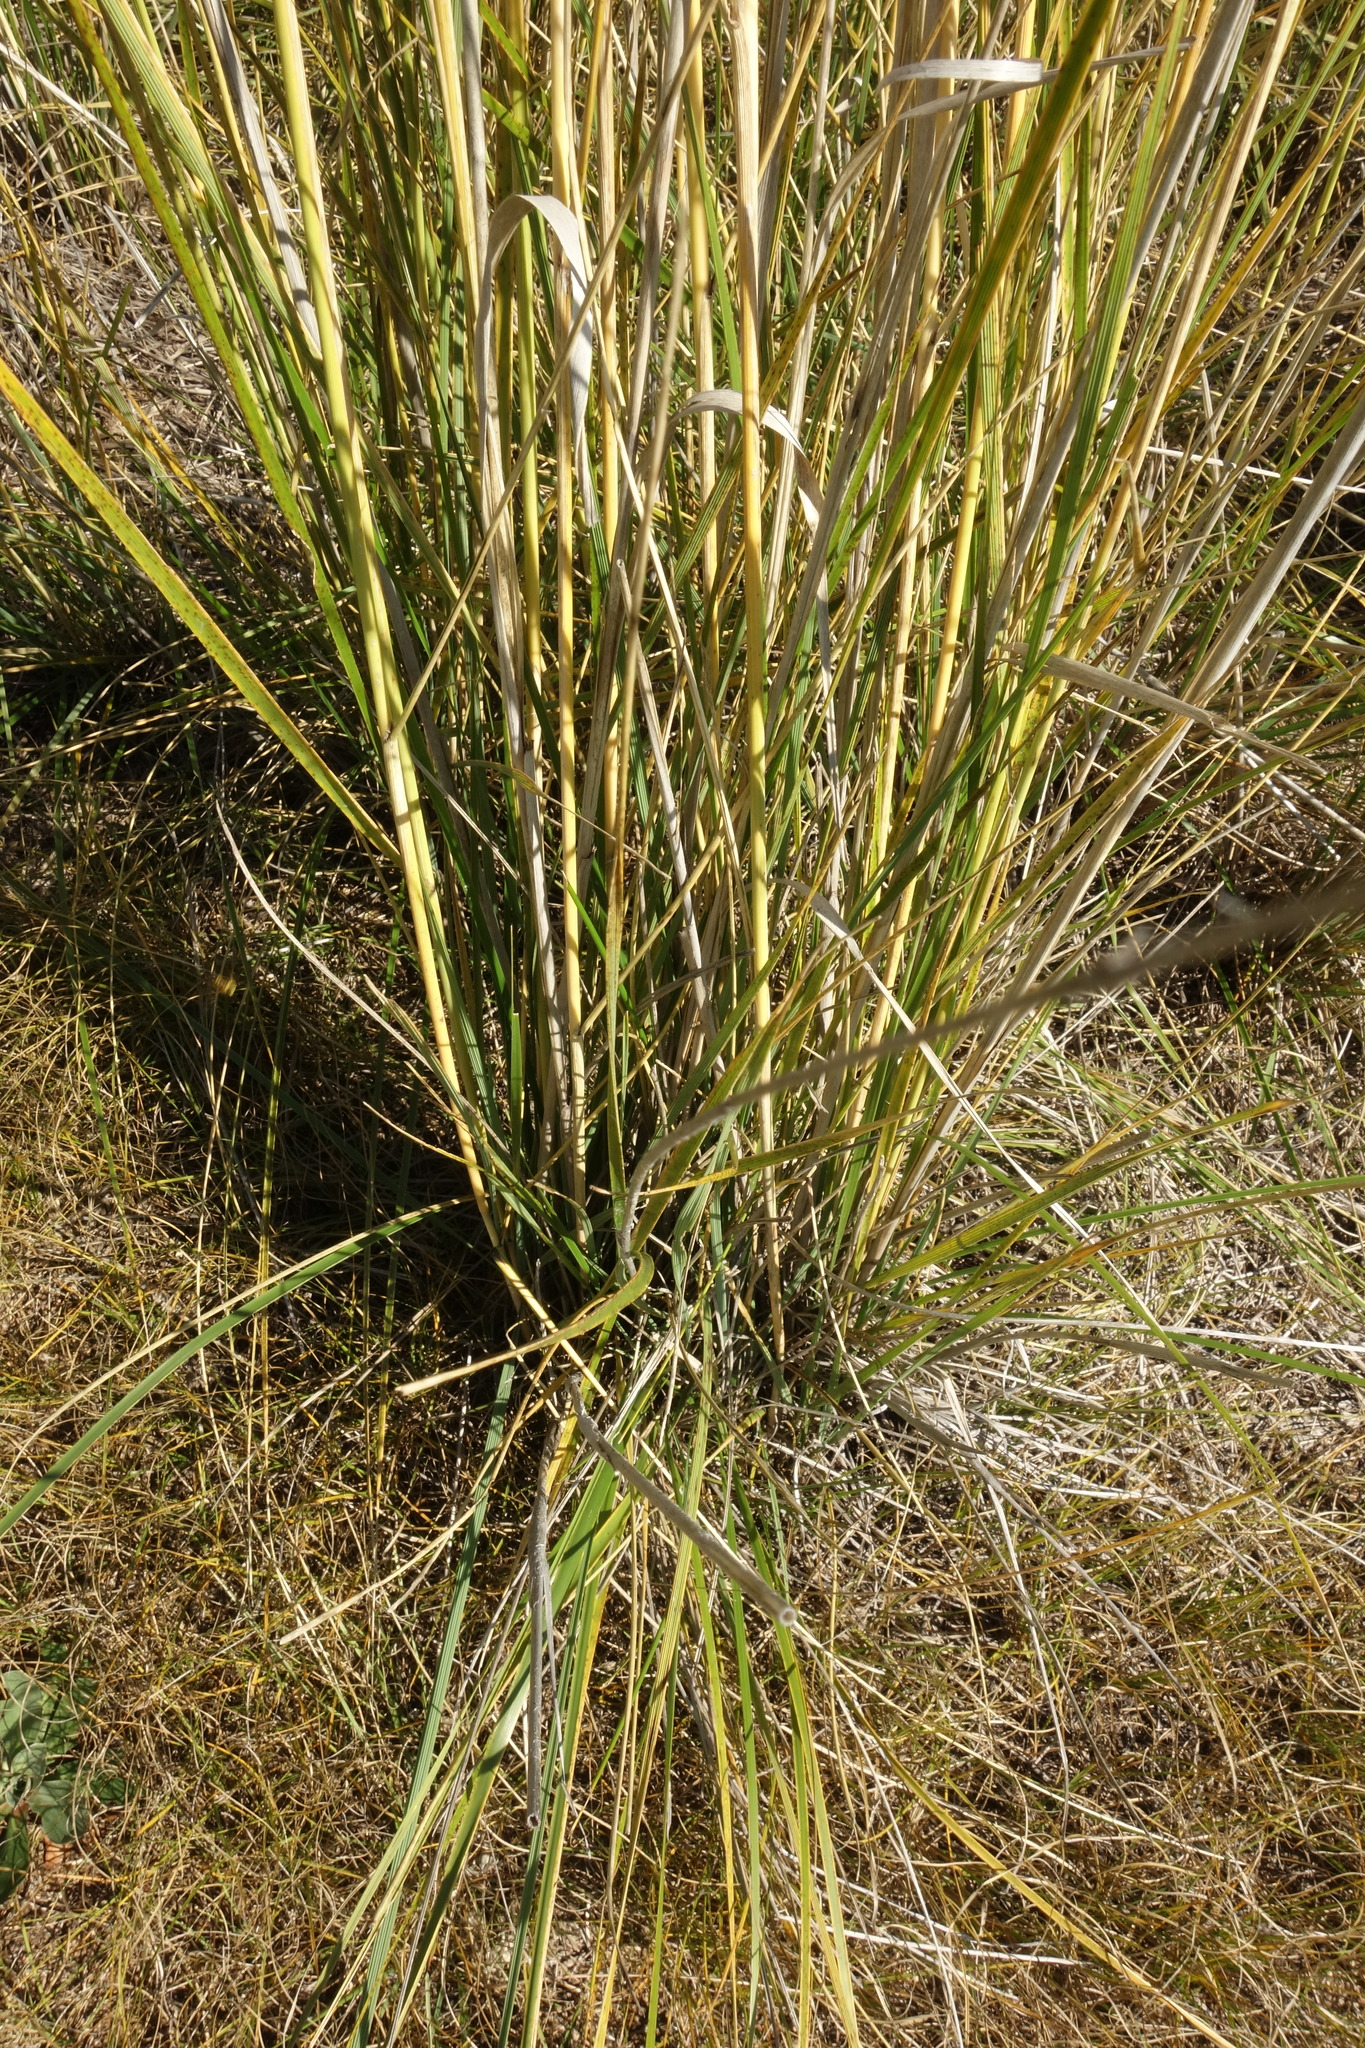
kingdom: Plantae
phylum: Tracheophyta
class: Liliopsida
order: Poales
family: Poaceae
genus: Neotrinia
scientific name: Neotrinia splendens
